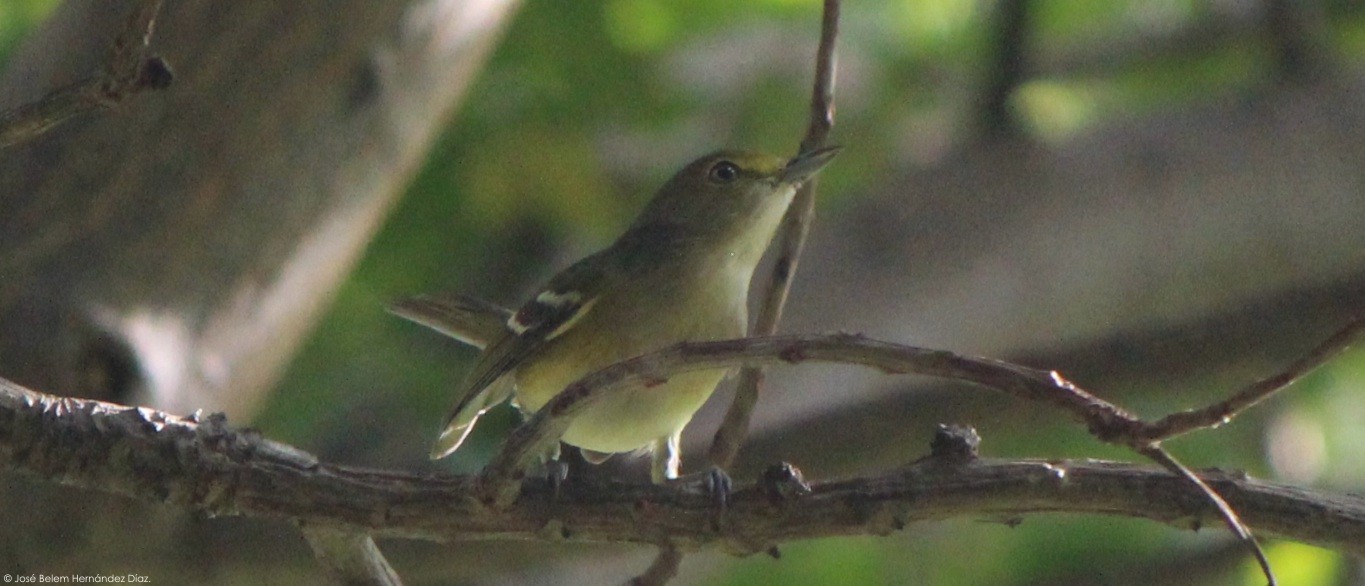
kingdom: Animalia
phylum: Chordata
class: Aves
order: Passeriformes
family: Vireonidae
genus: Vireo
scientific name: Vireo griseus
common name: White-eyed vireo
